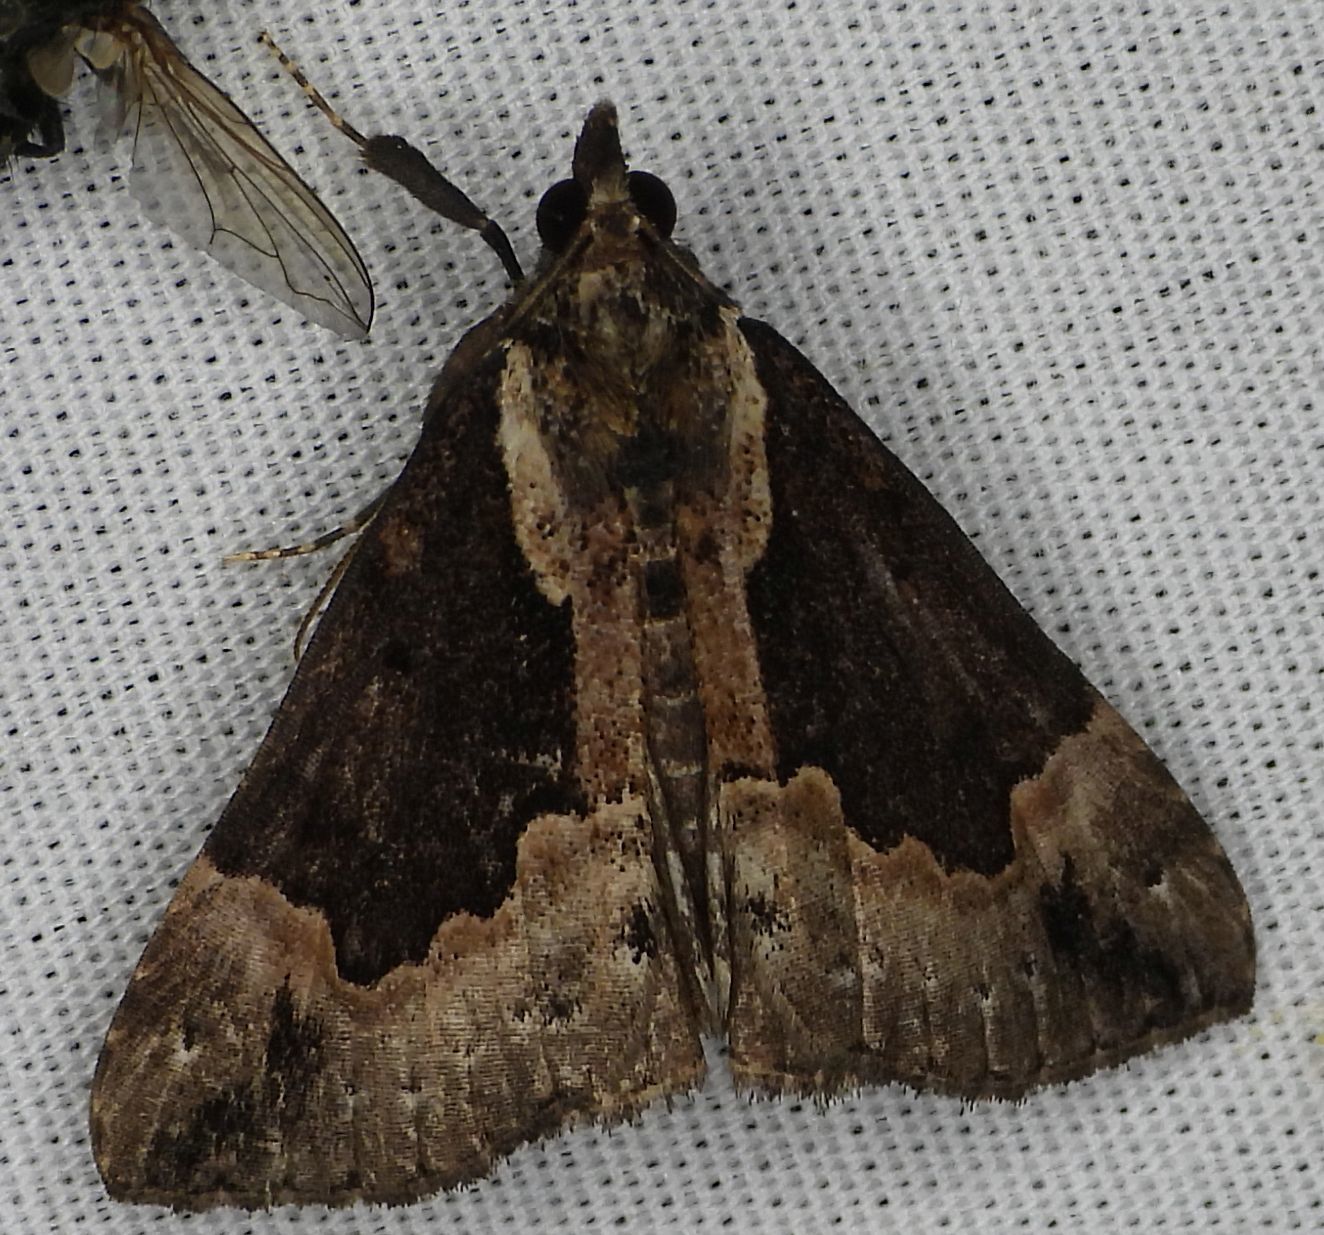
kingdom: Animalia
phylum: Arthropoda
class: Insecta
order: Lepidoptera
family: Erebidae
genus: Hypena
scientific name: Hypena baltimoralis
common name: Baltimore snout
